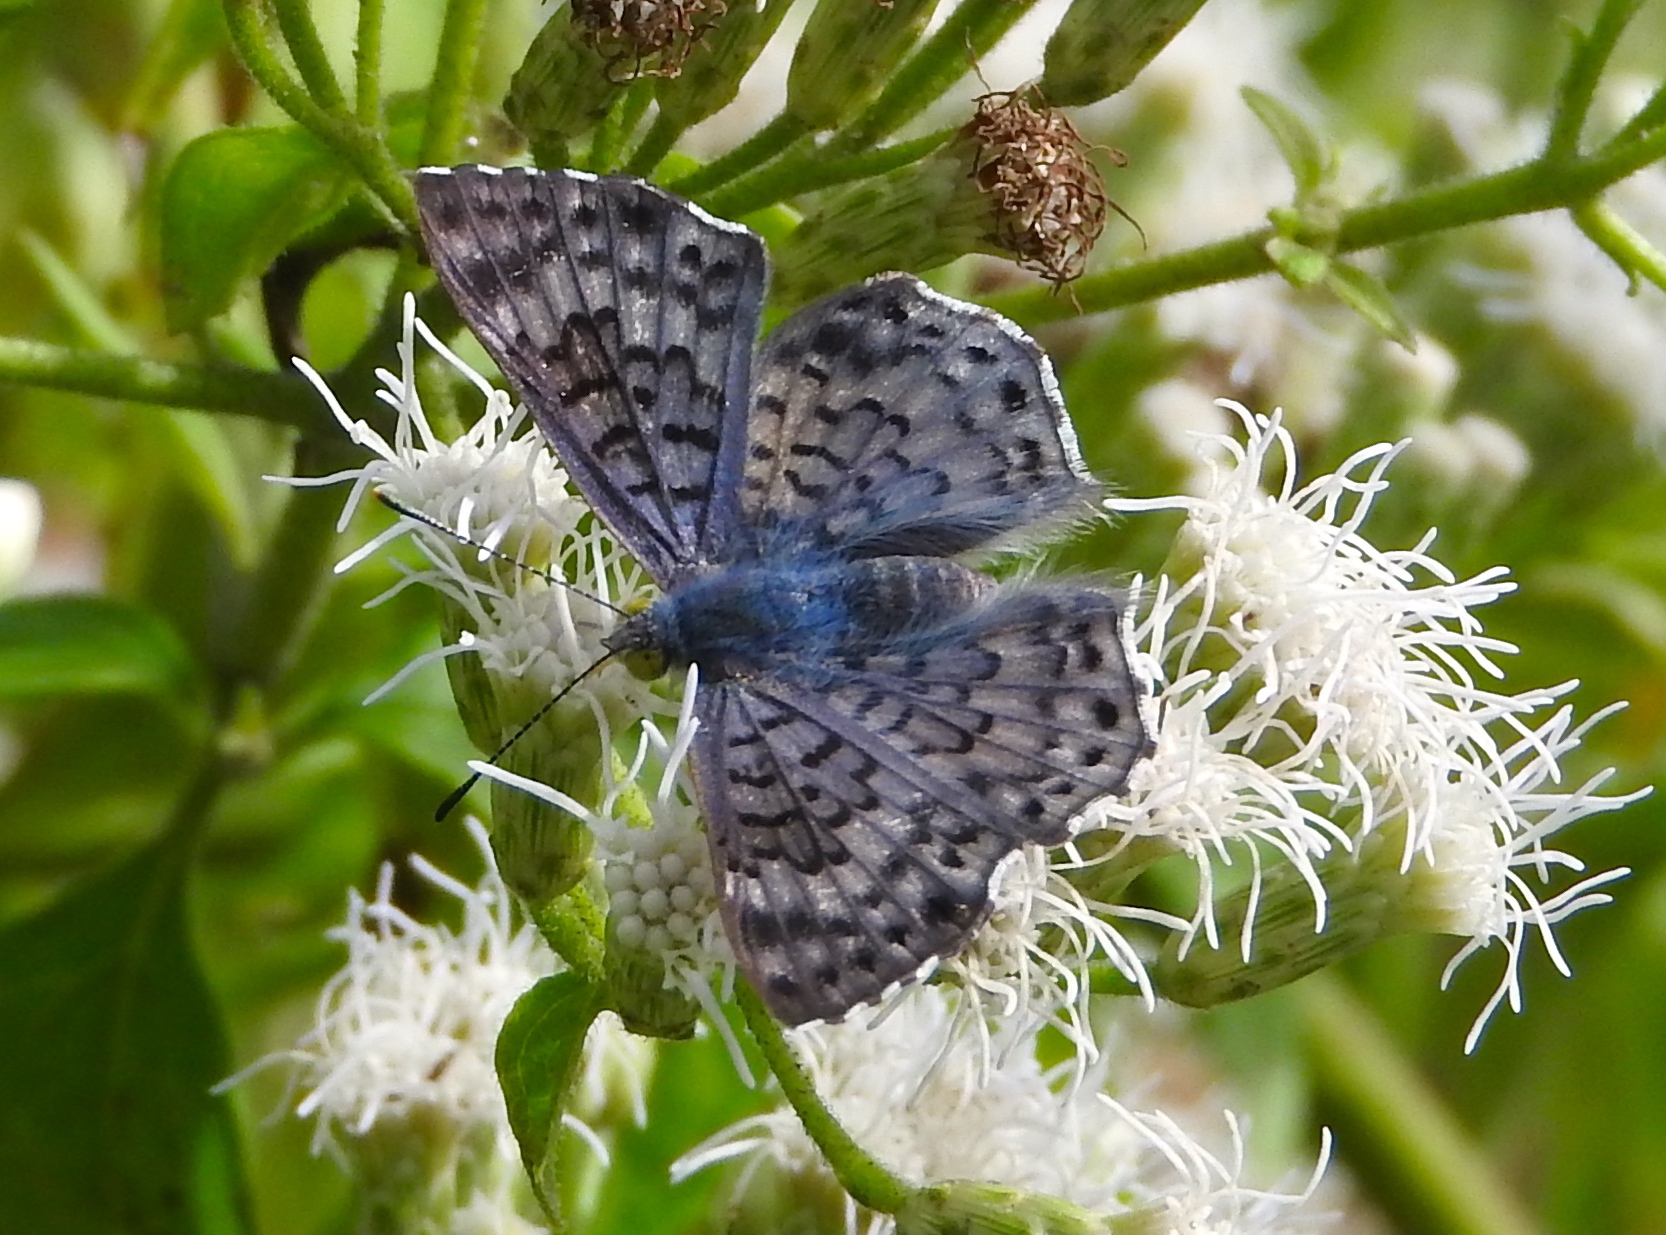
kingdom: Animalia
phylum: Arthropoda
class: Insecta
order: Diptera
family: Acroceridae
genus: Lasia
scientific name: Lasia
